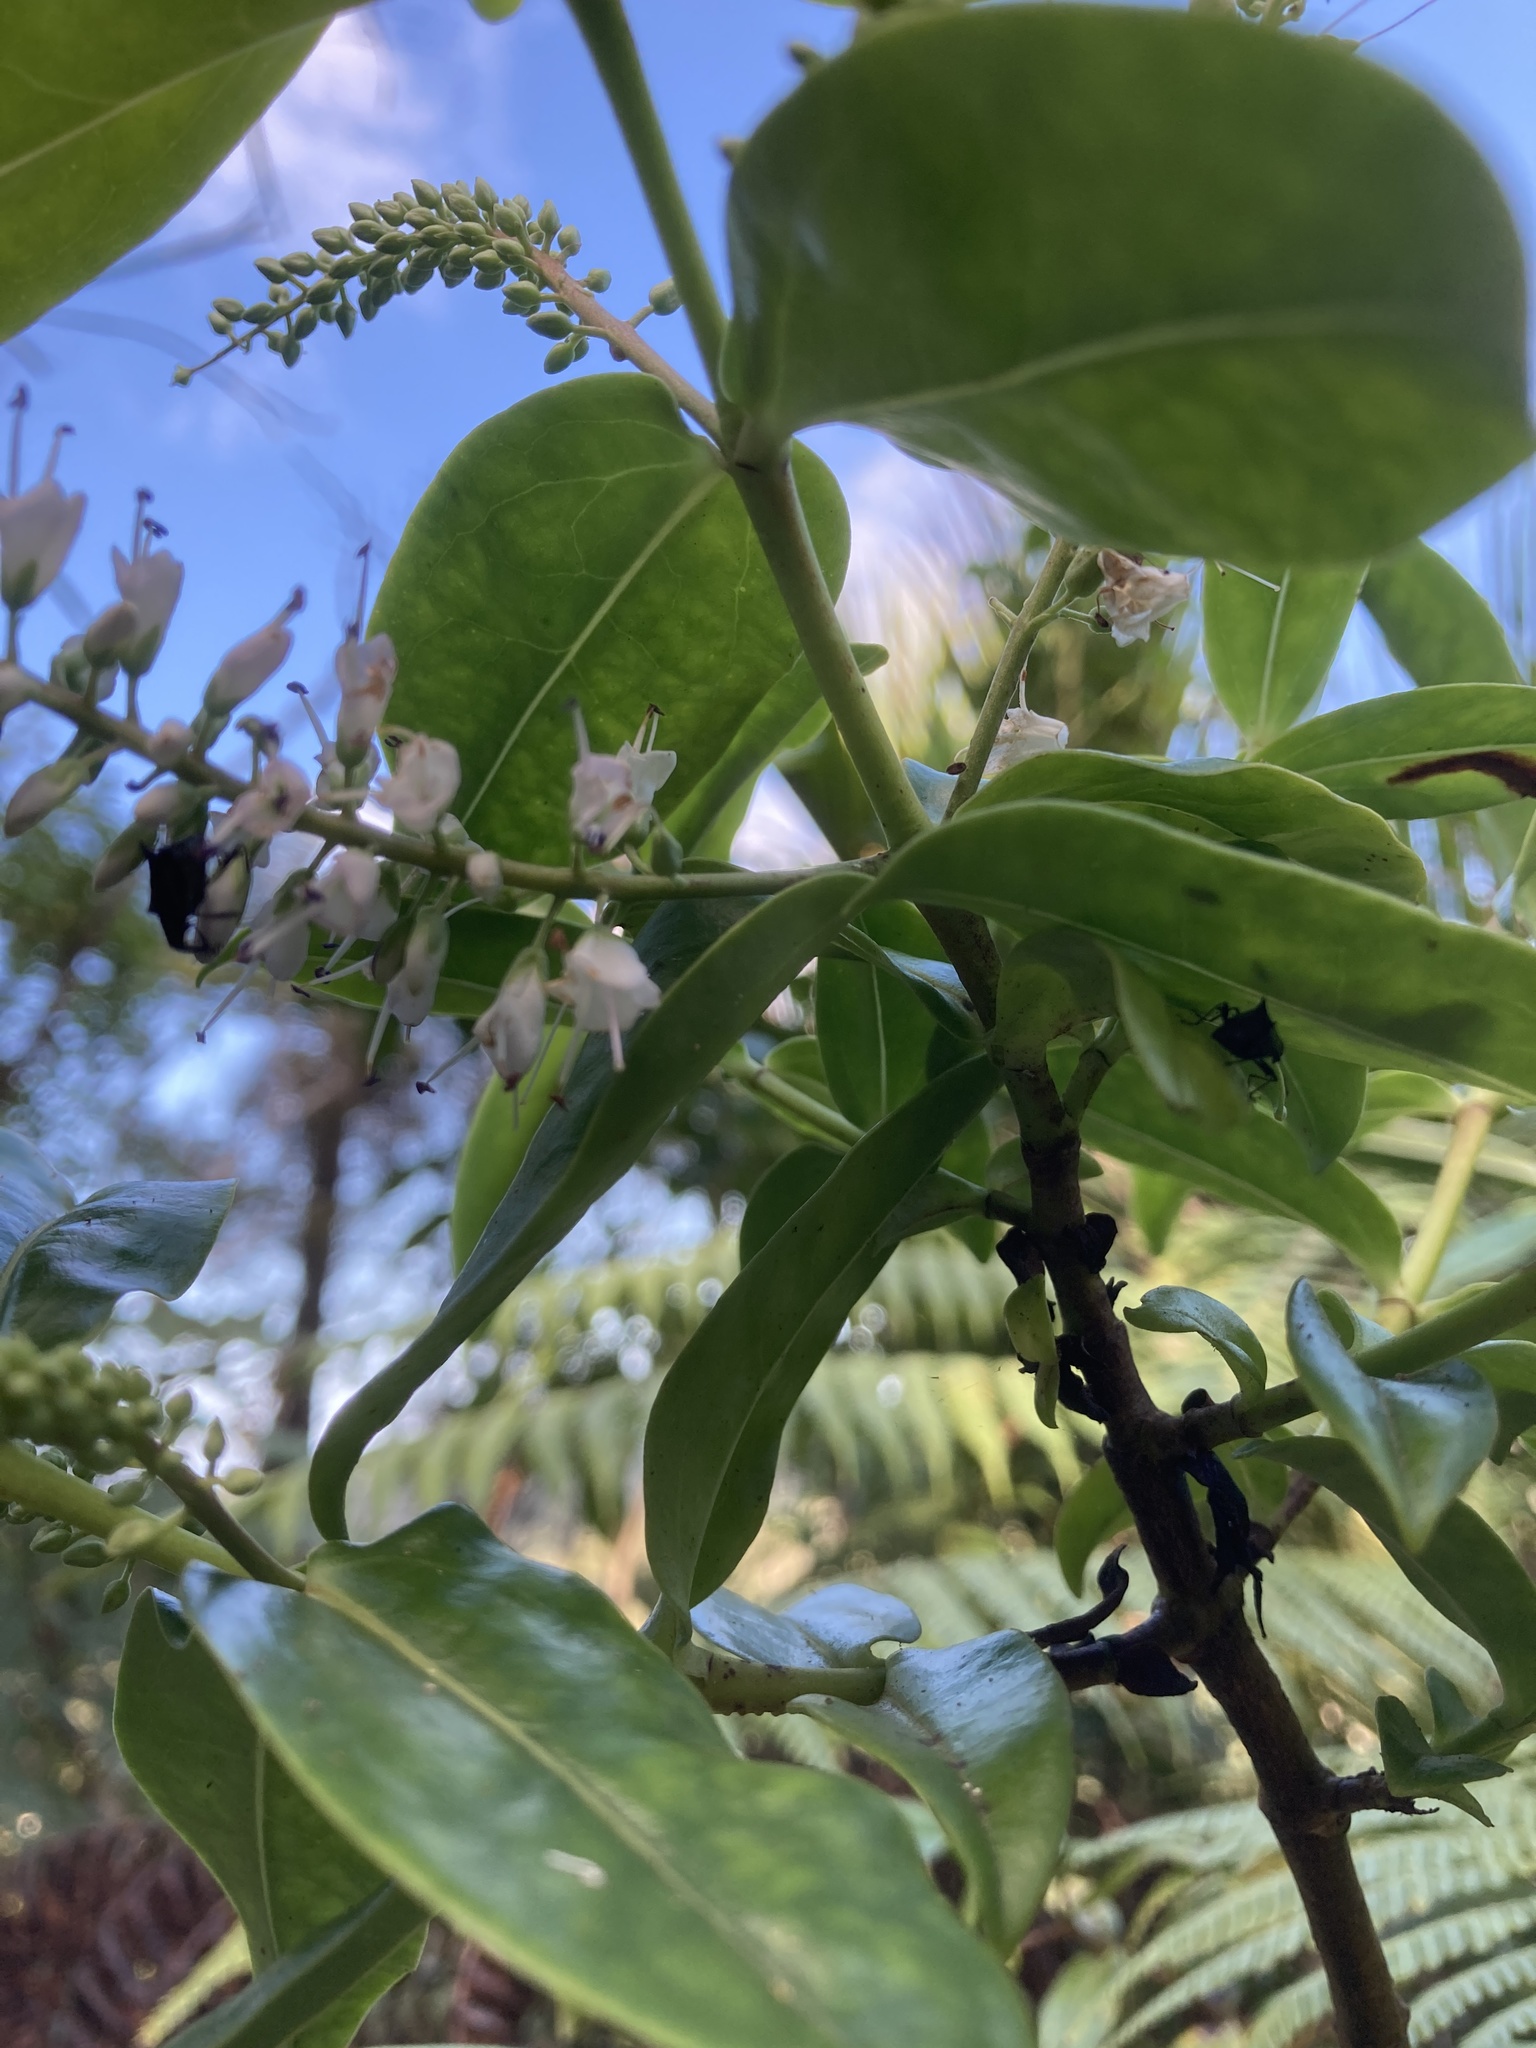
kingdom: Animalia
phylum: Arthropoda
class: Insecta
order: Coleoptera
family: Curculionidae
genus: Scolopterus
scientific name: Scolopterus aequus
